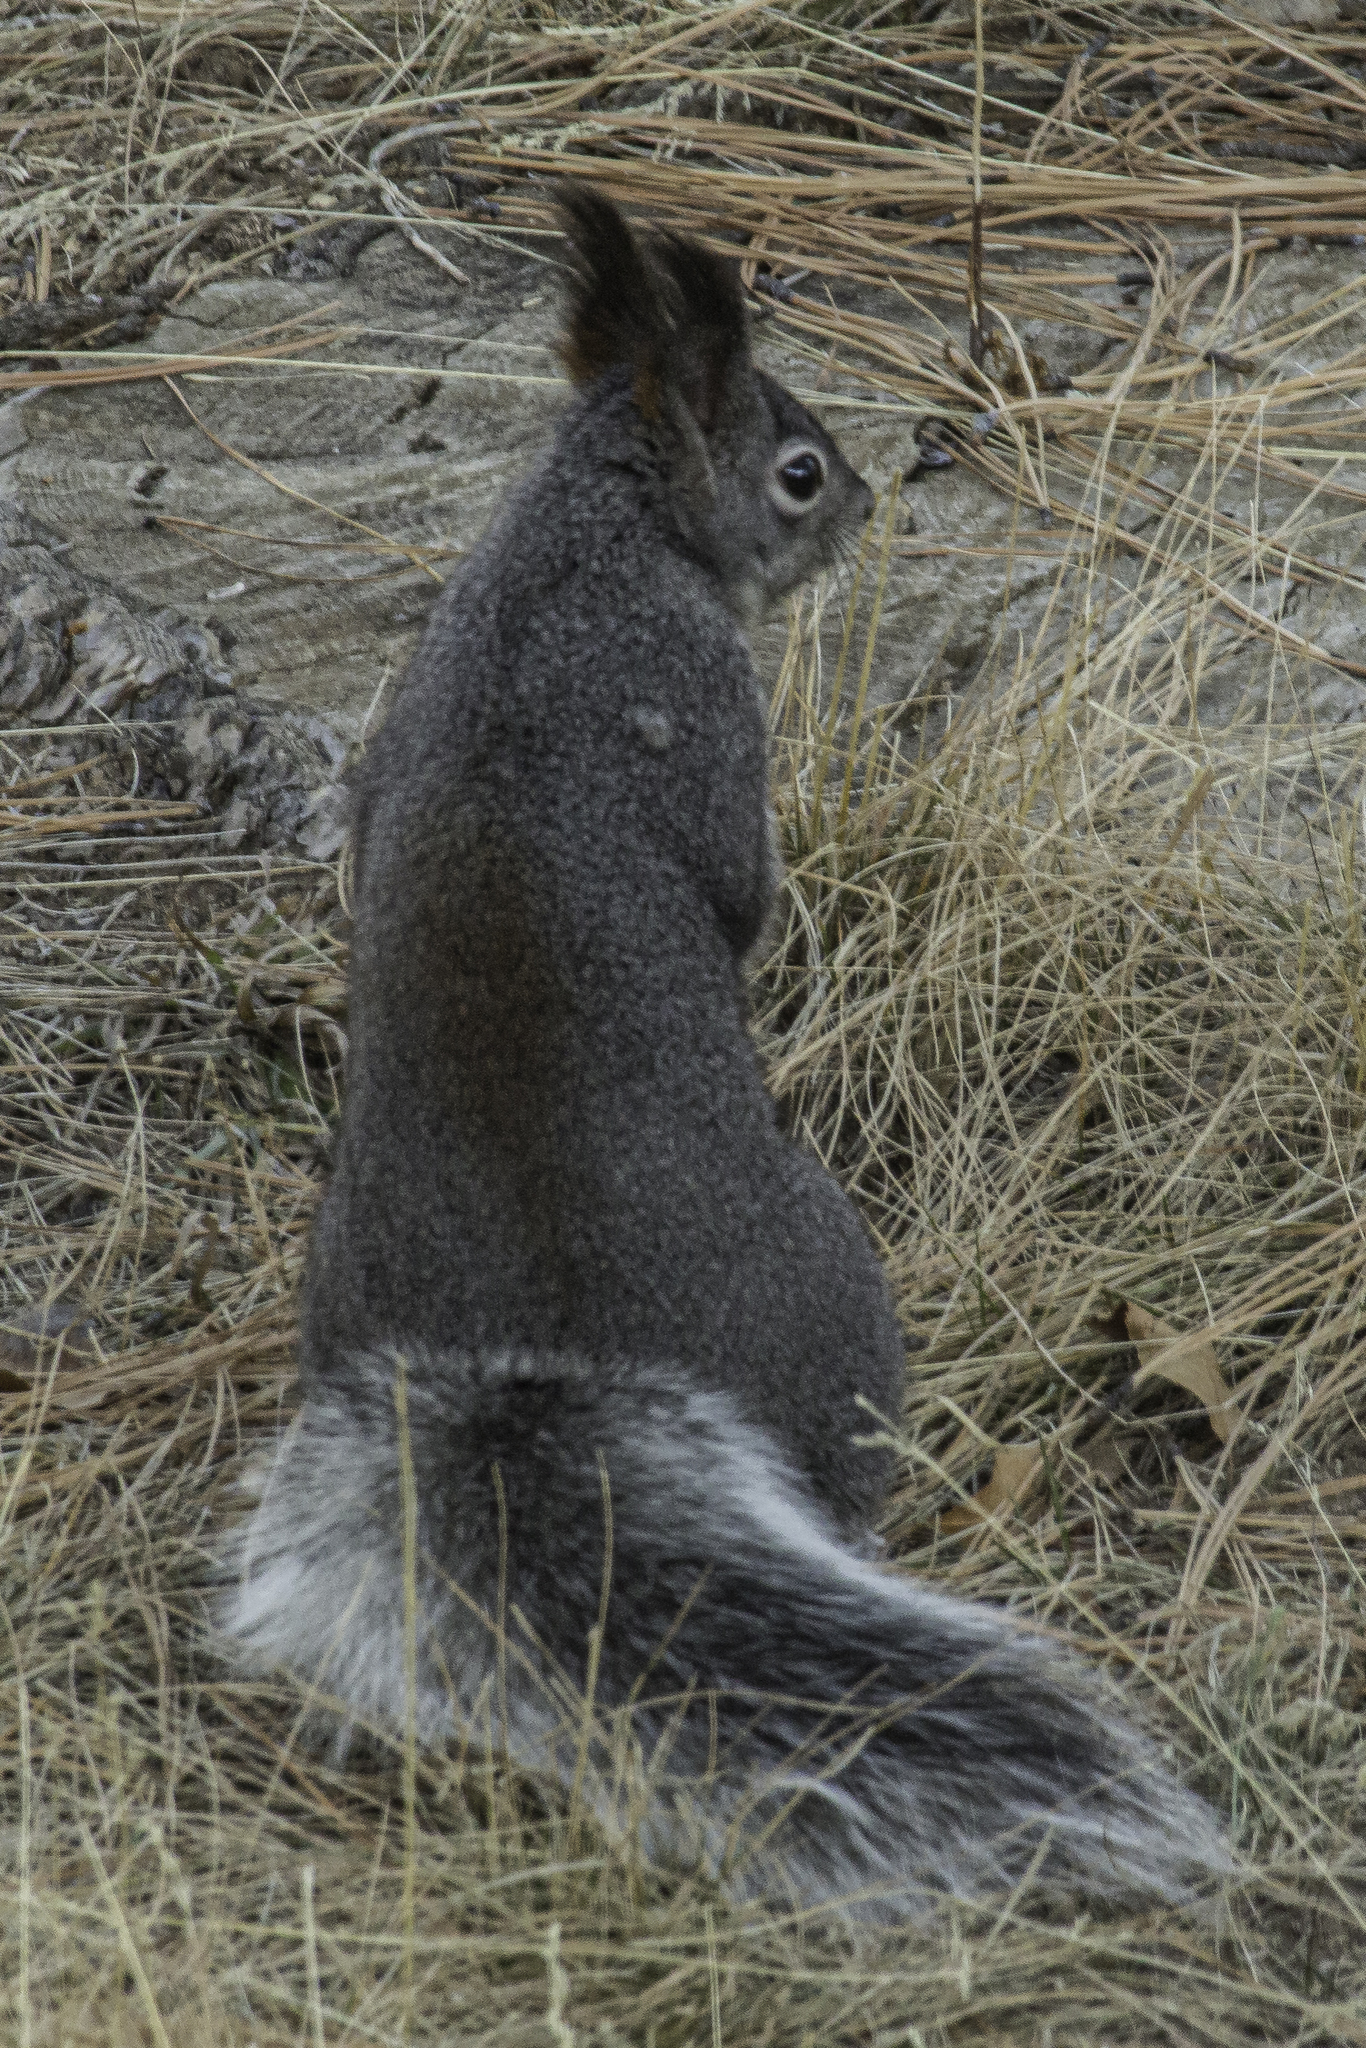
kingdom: Animalia
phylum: Chordata
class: Mammalia
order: Rodentia
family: Sciuridae
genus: Sciurus
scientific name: Sciurus aberti
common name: Abert's squirrel
